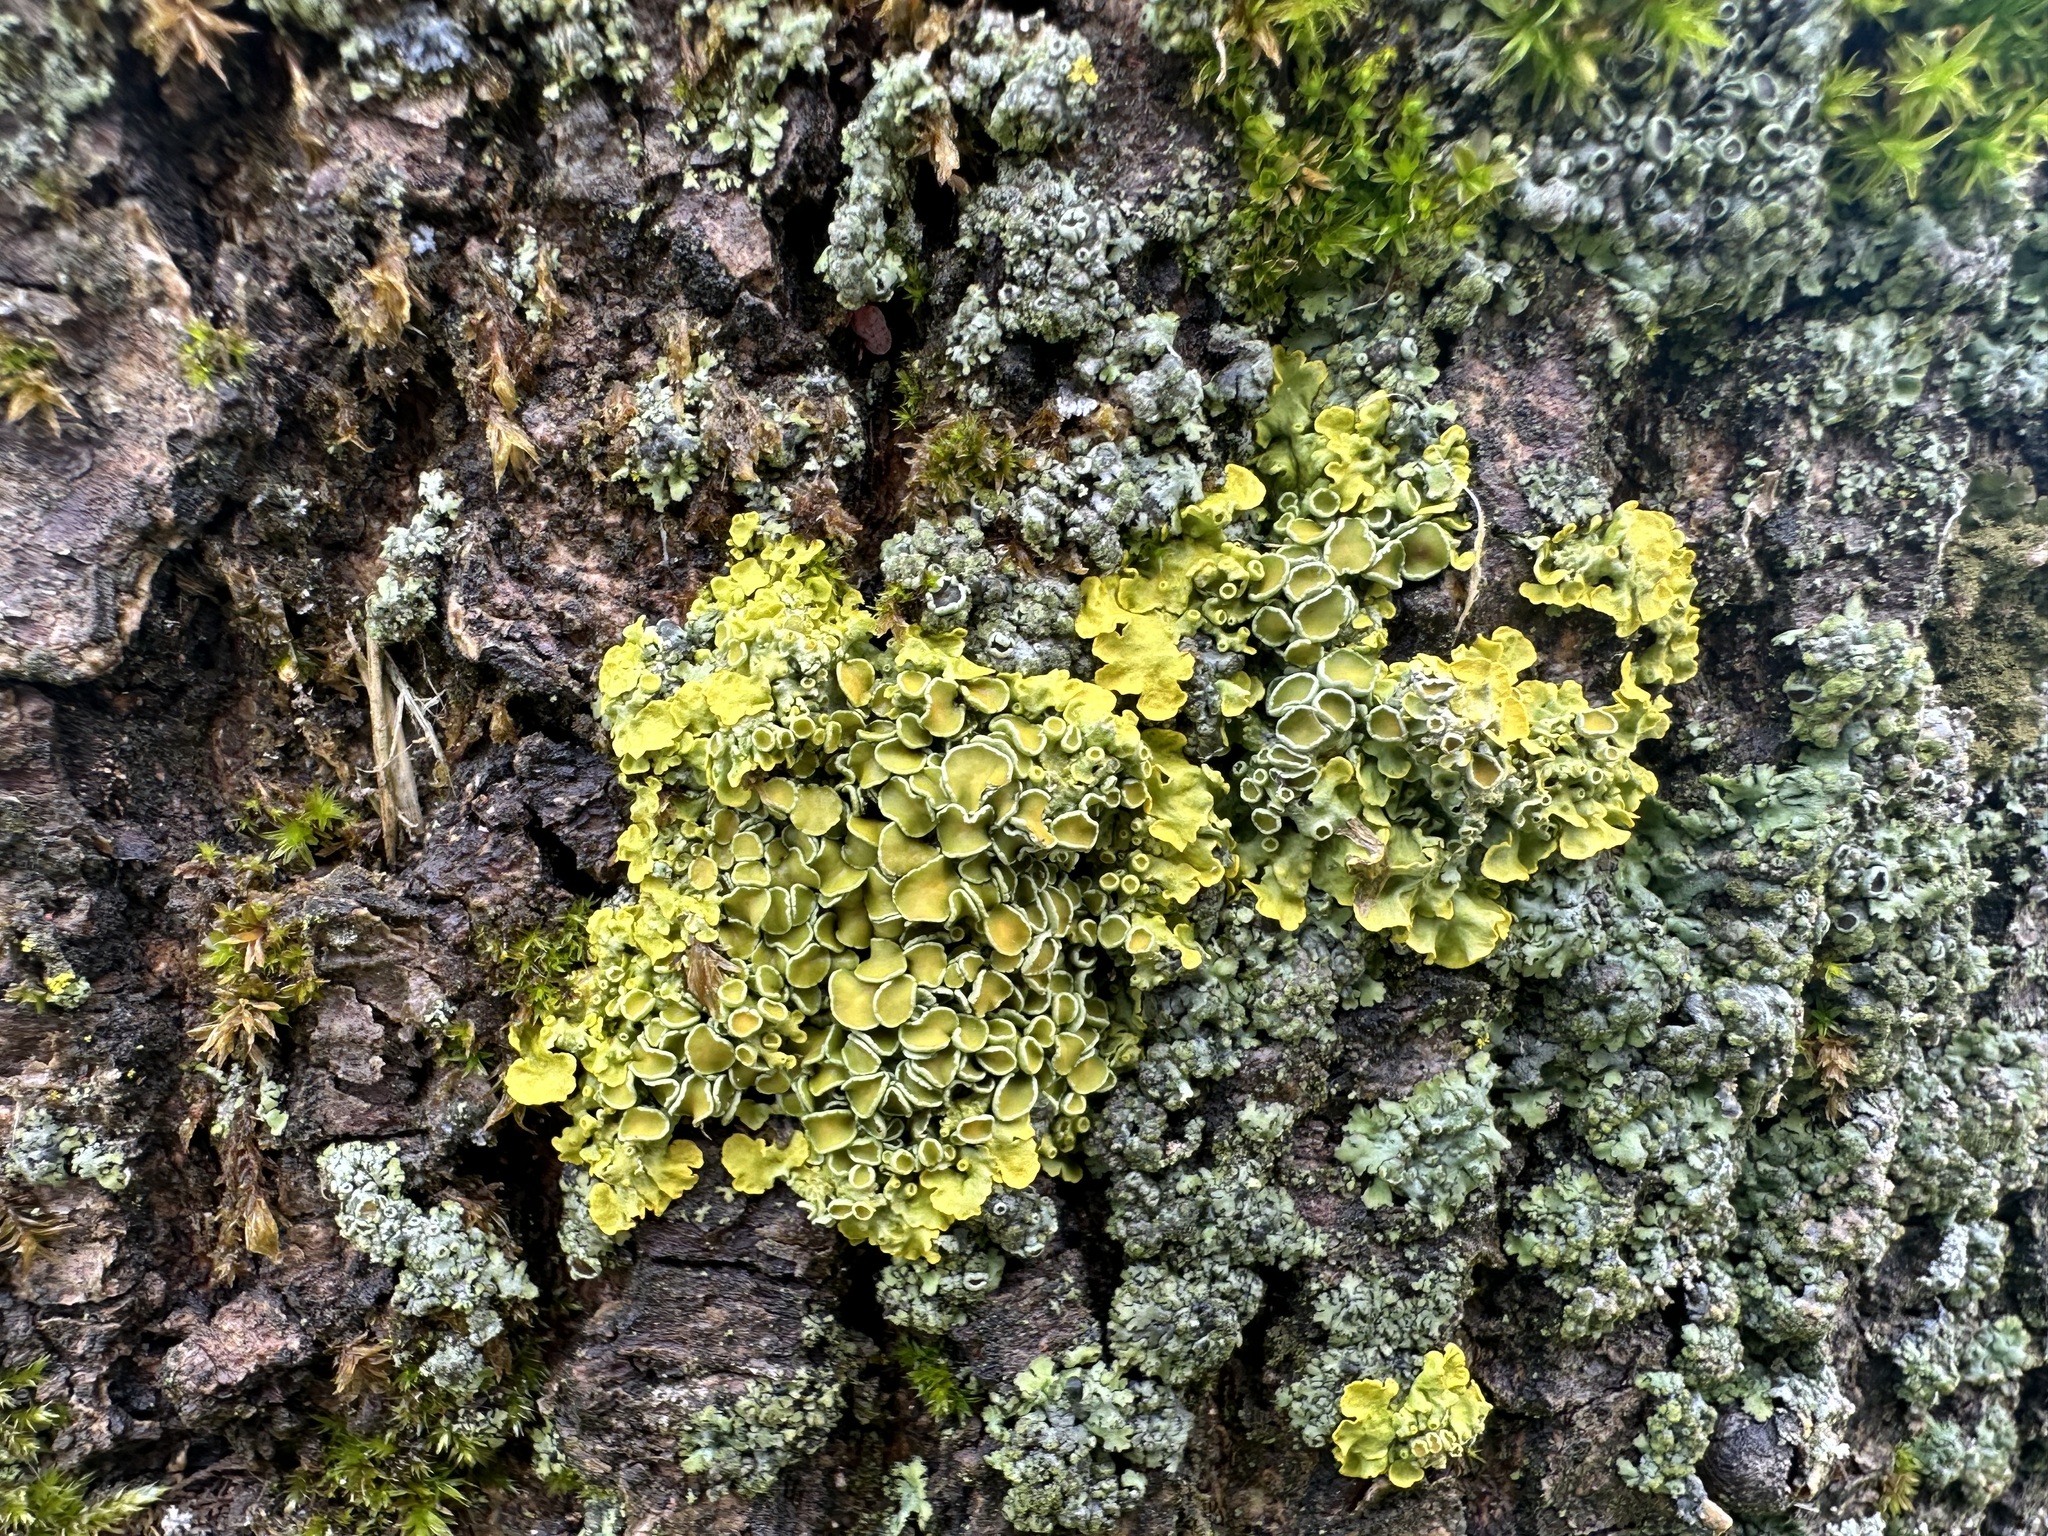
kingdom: Fungi
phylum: Ascomycota
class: Lecanoromycetes
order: Teloschistales
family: Teloschistaceae
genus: Xanthoria
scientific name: Xanthoria parietina
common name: Common orange lichen
